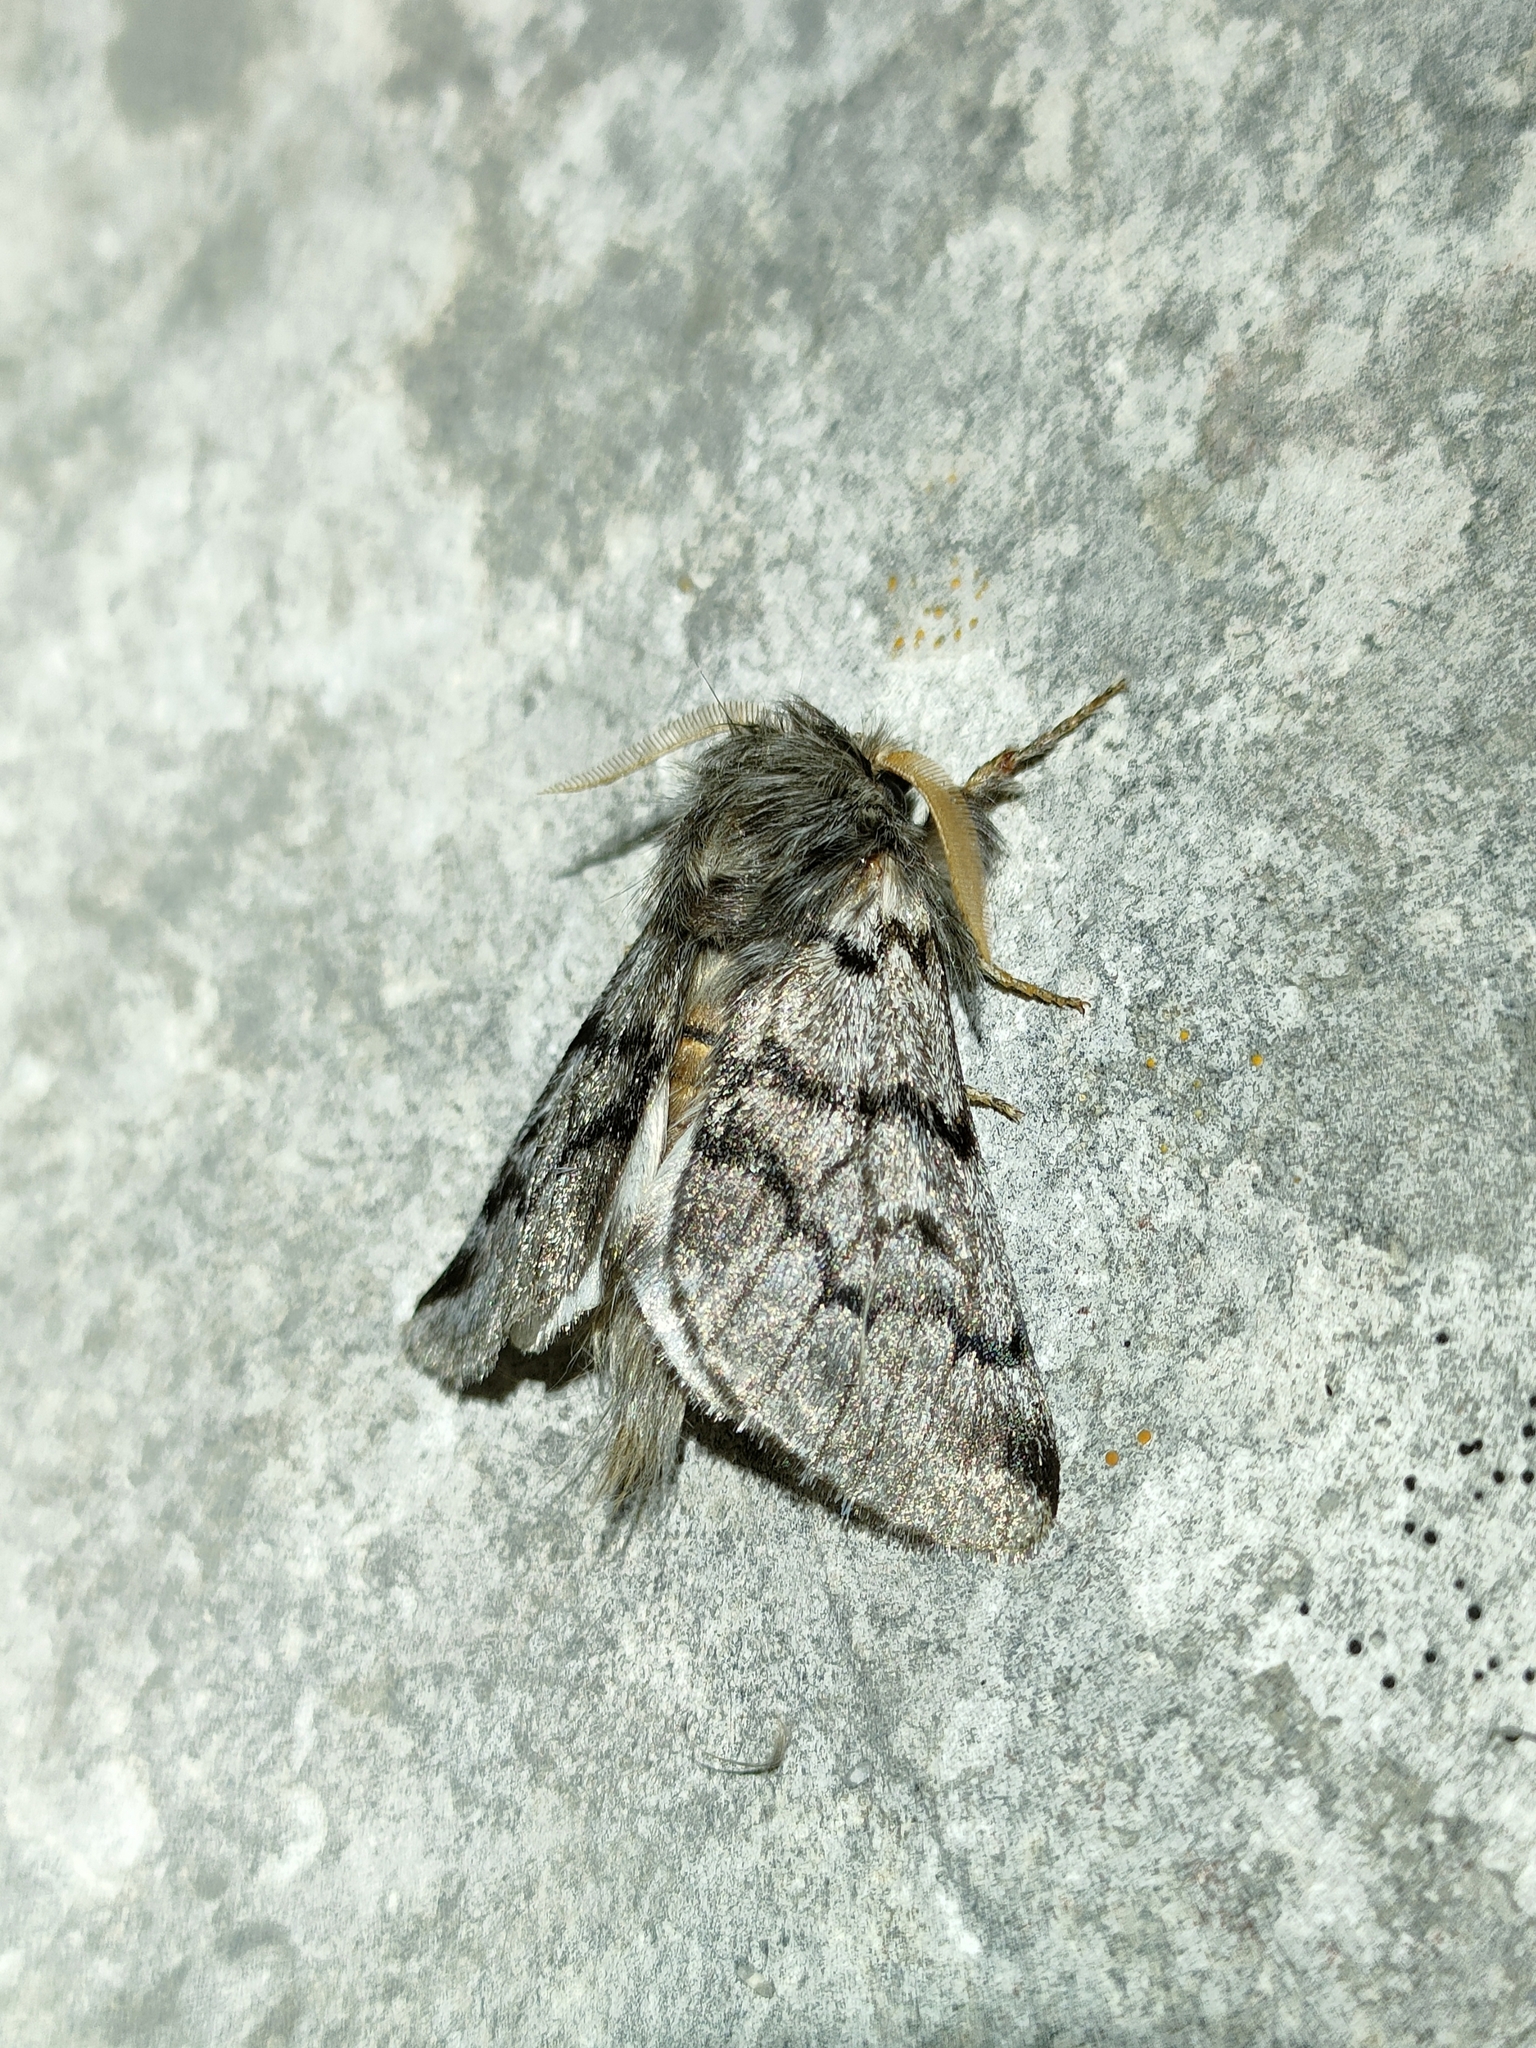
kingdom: Animalia
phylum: Arthropoda
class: Insecta
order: Lepidoptera
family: Notodontidae
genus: Thaumetopoea
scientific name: Thaumetopoea pityocampa
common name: Pine processionary
